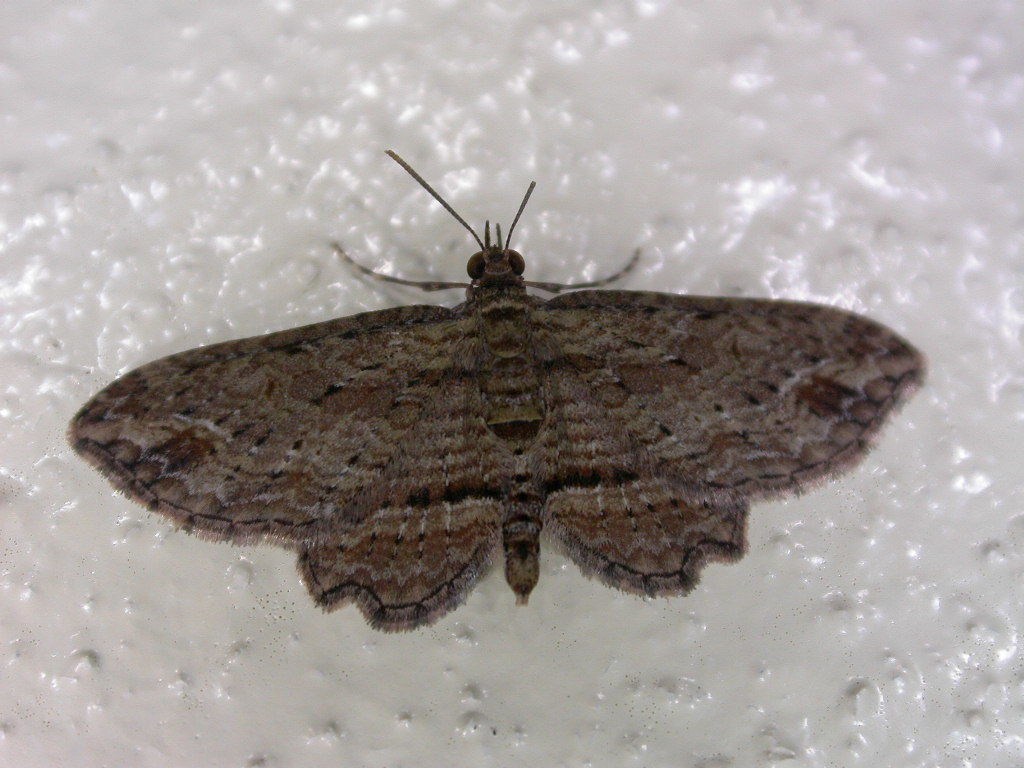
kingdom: Animalia
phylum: Arthropoda
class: Insecta
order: Lepidoptera
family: Geometridae
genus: Chloroclystis
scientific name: Chloroclystis filata
